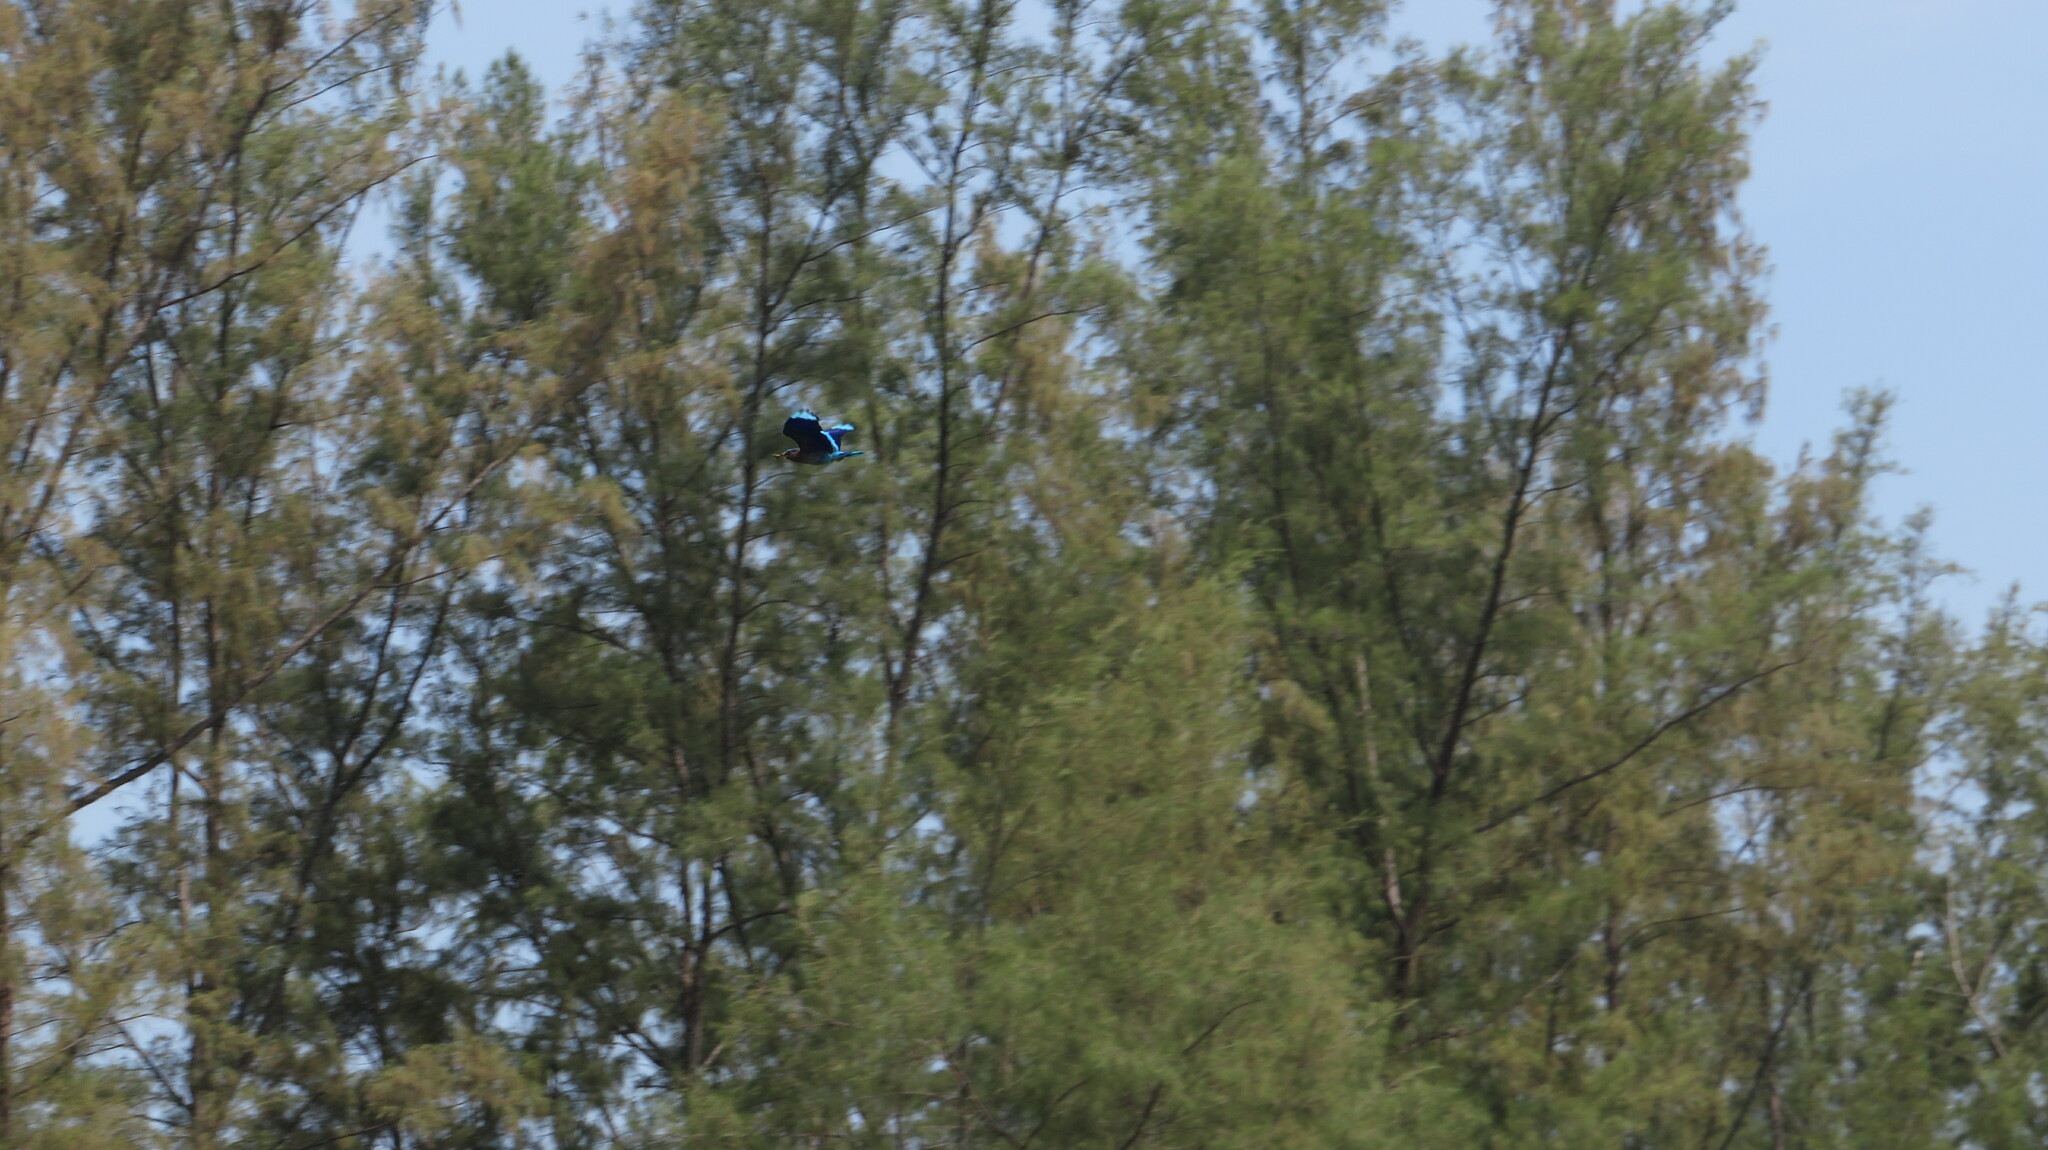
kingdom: Animalia
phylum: Chordata
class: Aves
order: Coraciiformes
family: Coraciidae
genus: Coracias
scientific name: Coracias affinis
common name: Indochinese roller
